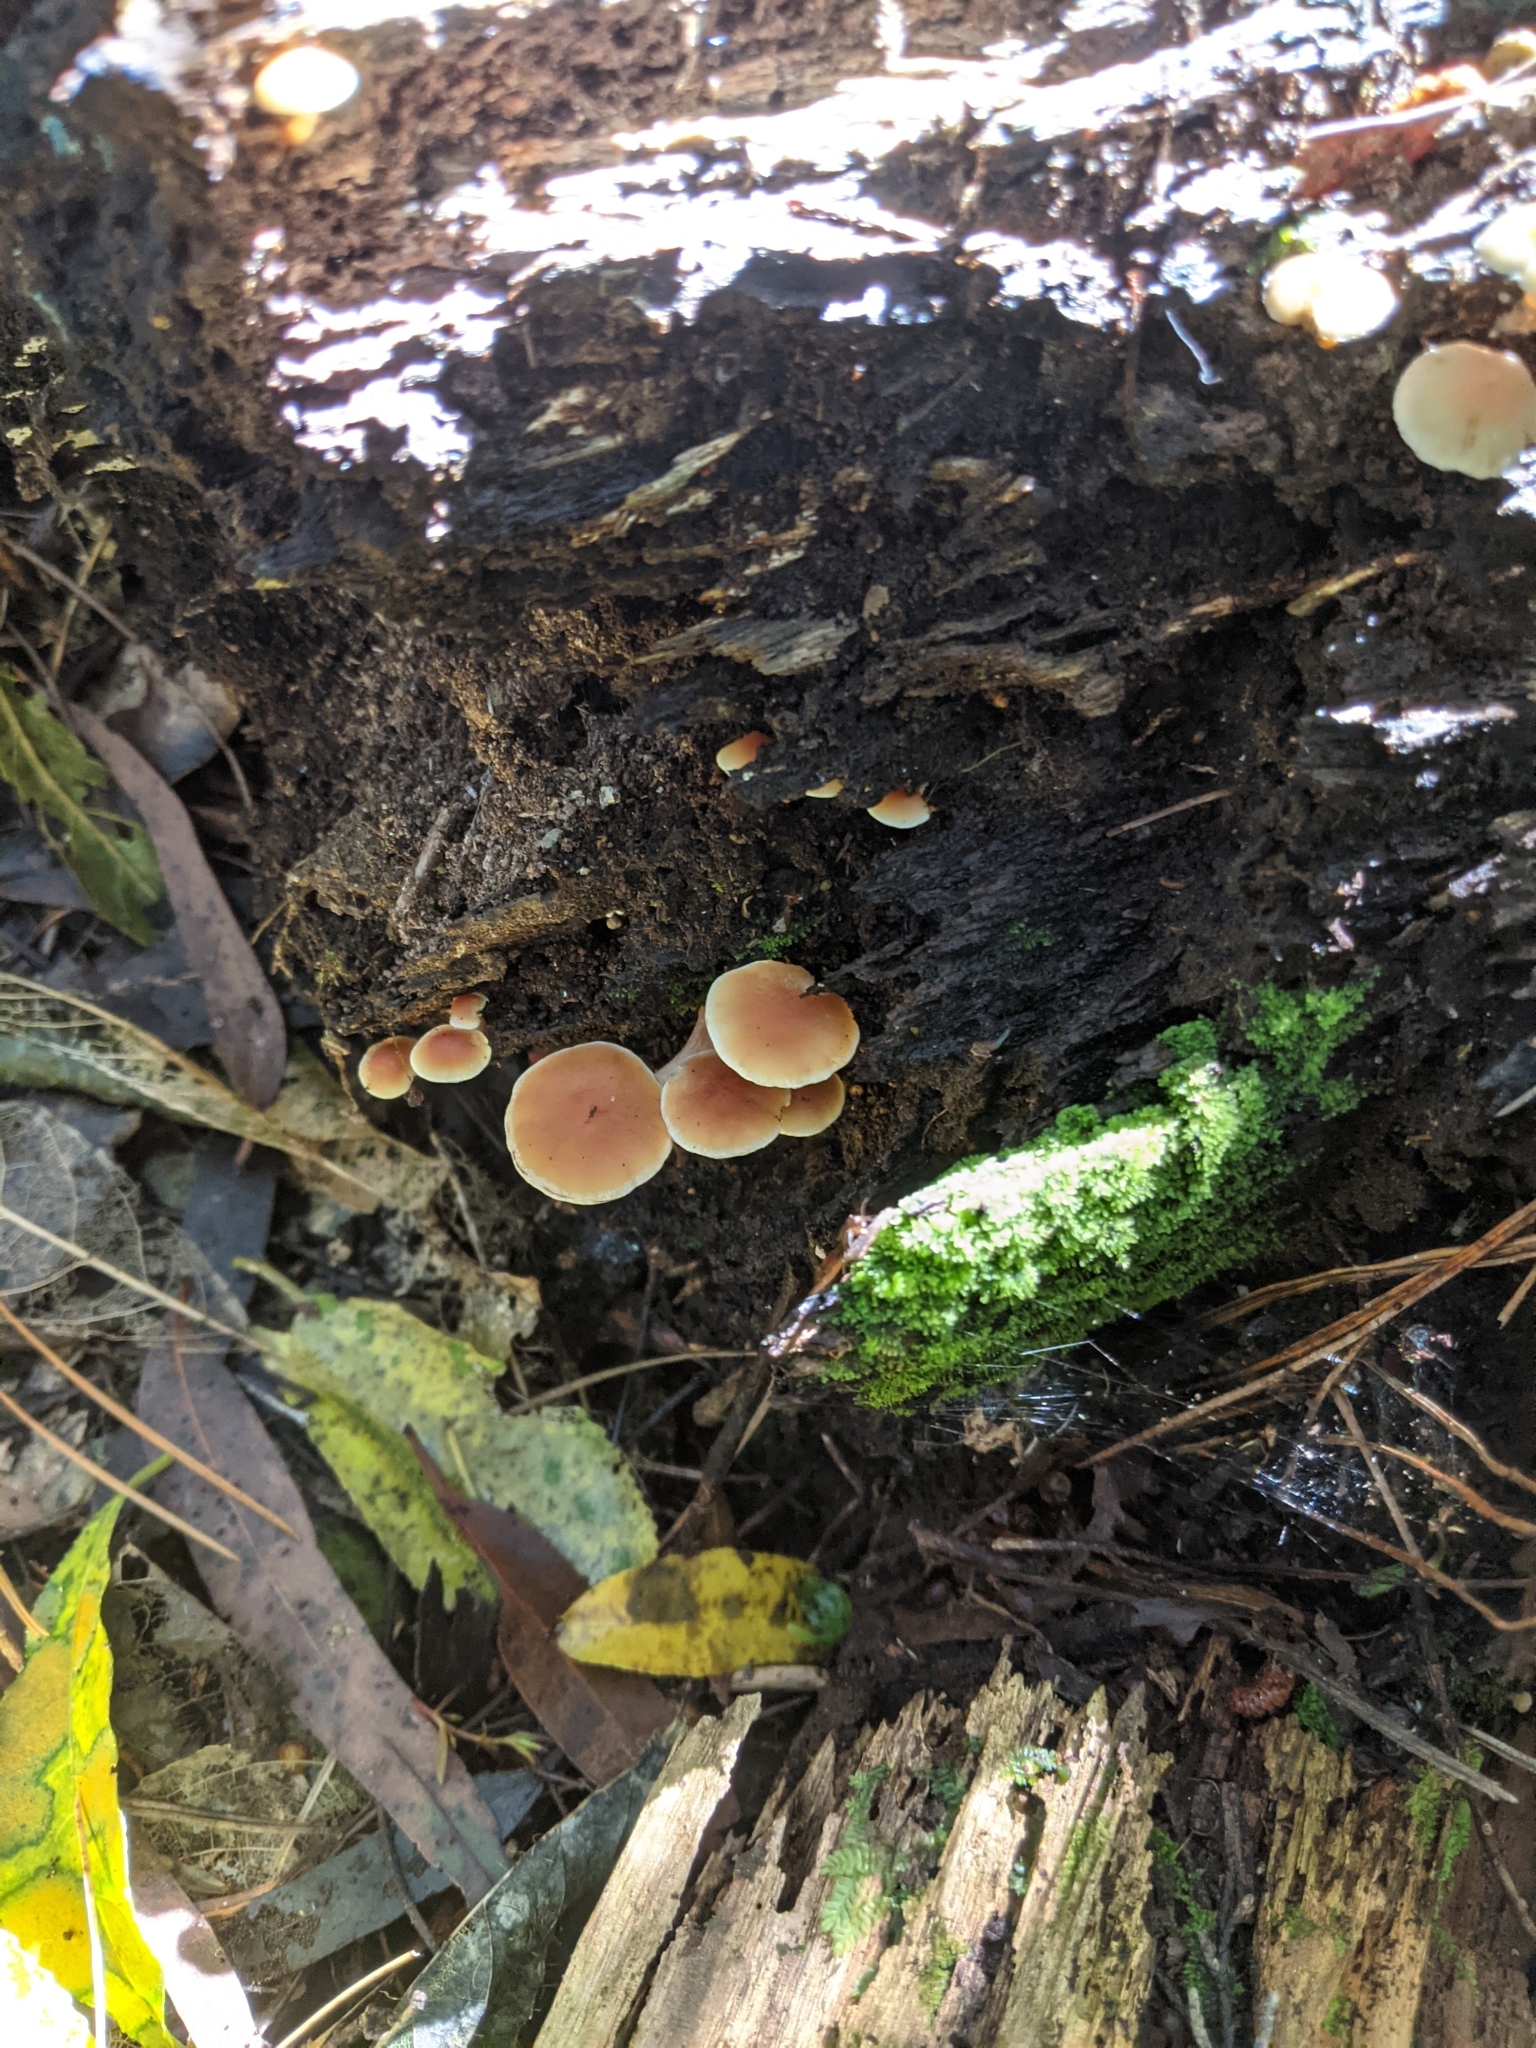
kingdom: Fungi
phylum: Basidiomycota
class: Agaricomycetes
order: Agaricales
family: Strophariaceae
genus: Hypholoma
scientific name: Hypholoma acutum
